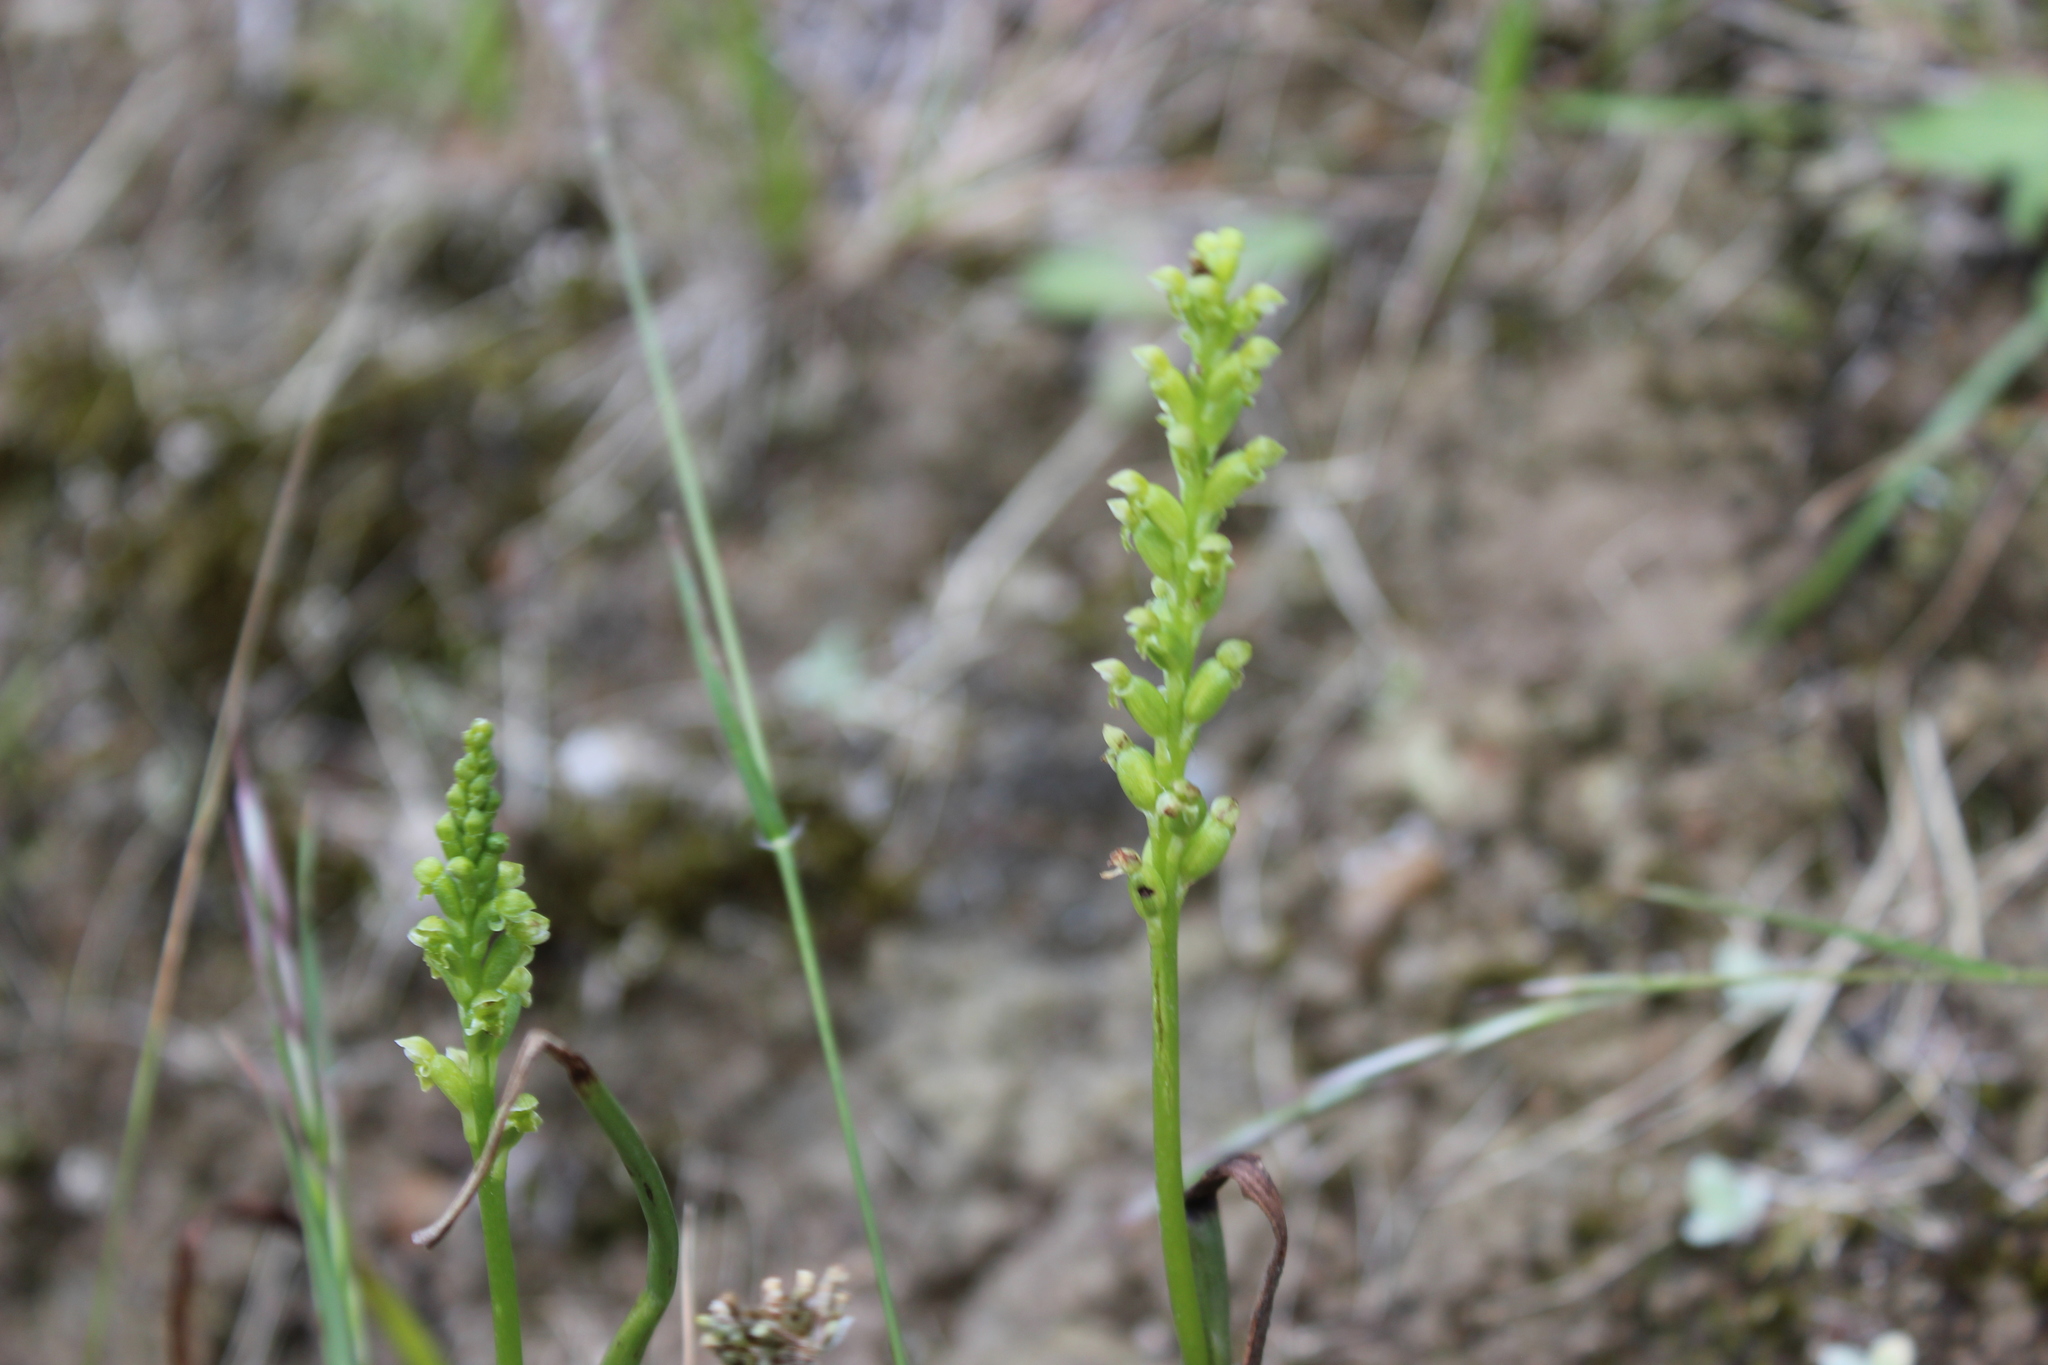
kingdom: Plantae
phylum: Tracheophyta
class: Liliopsida
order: Asparagales
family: Orchidaceae
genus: Microtis
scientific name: Microtis unifolia
